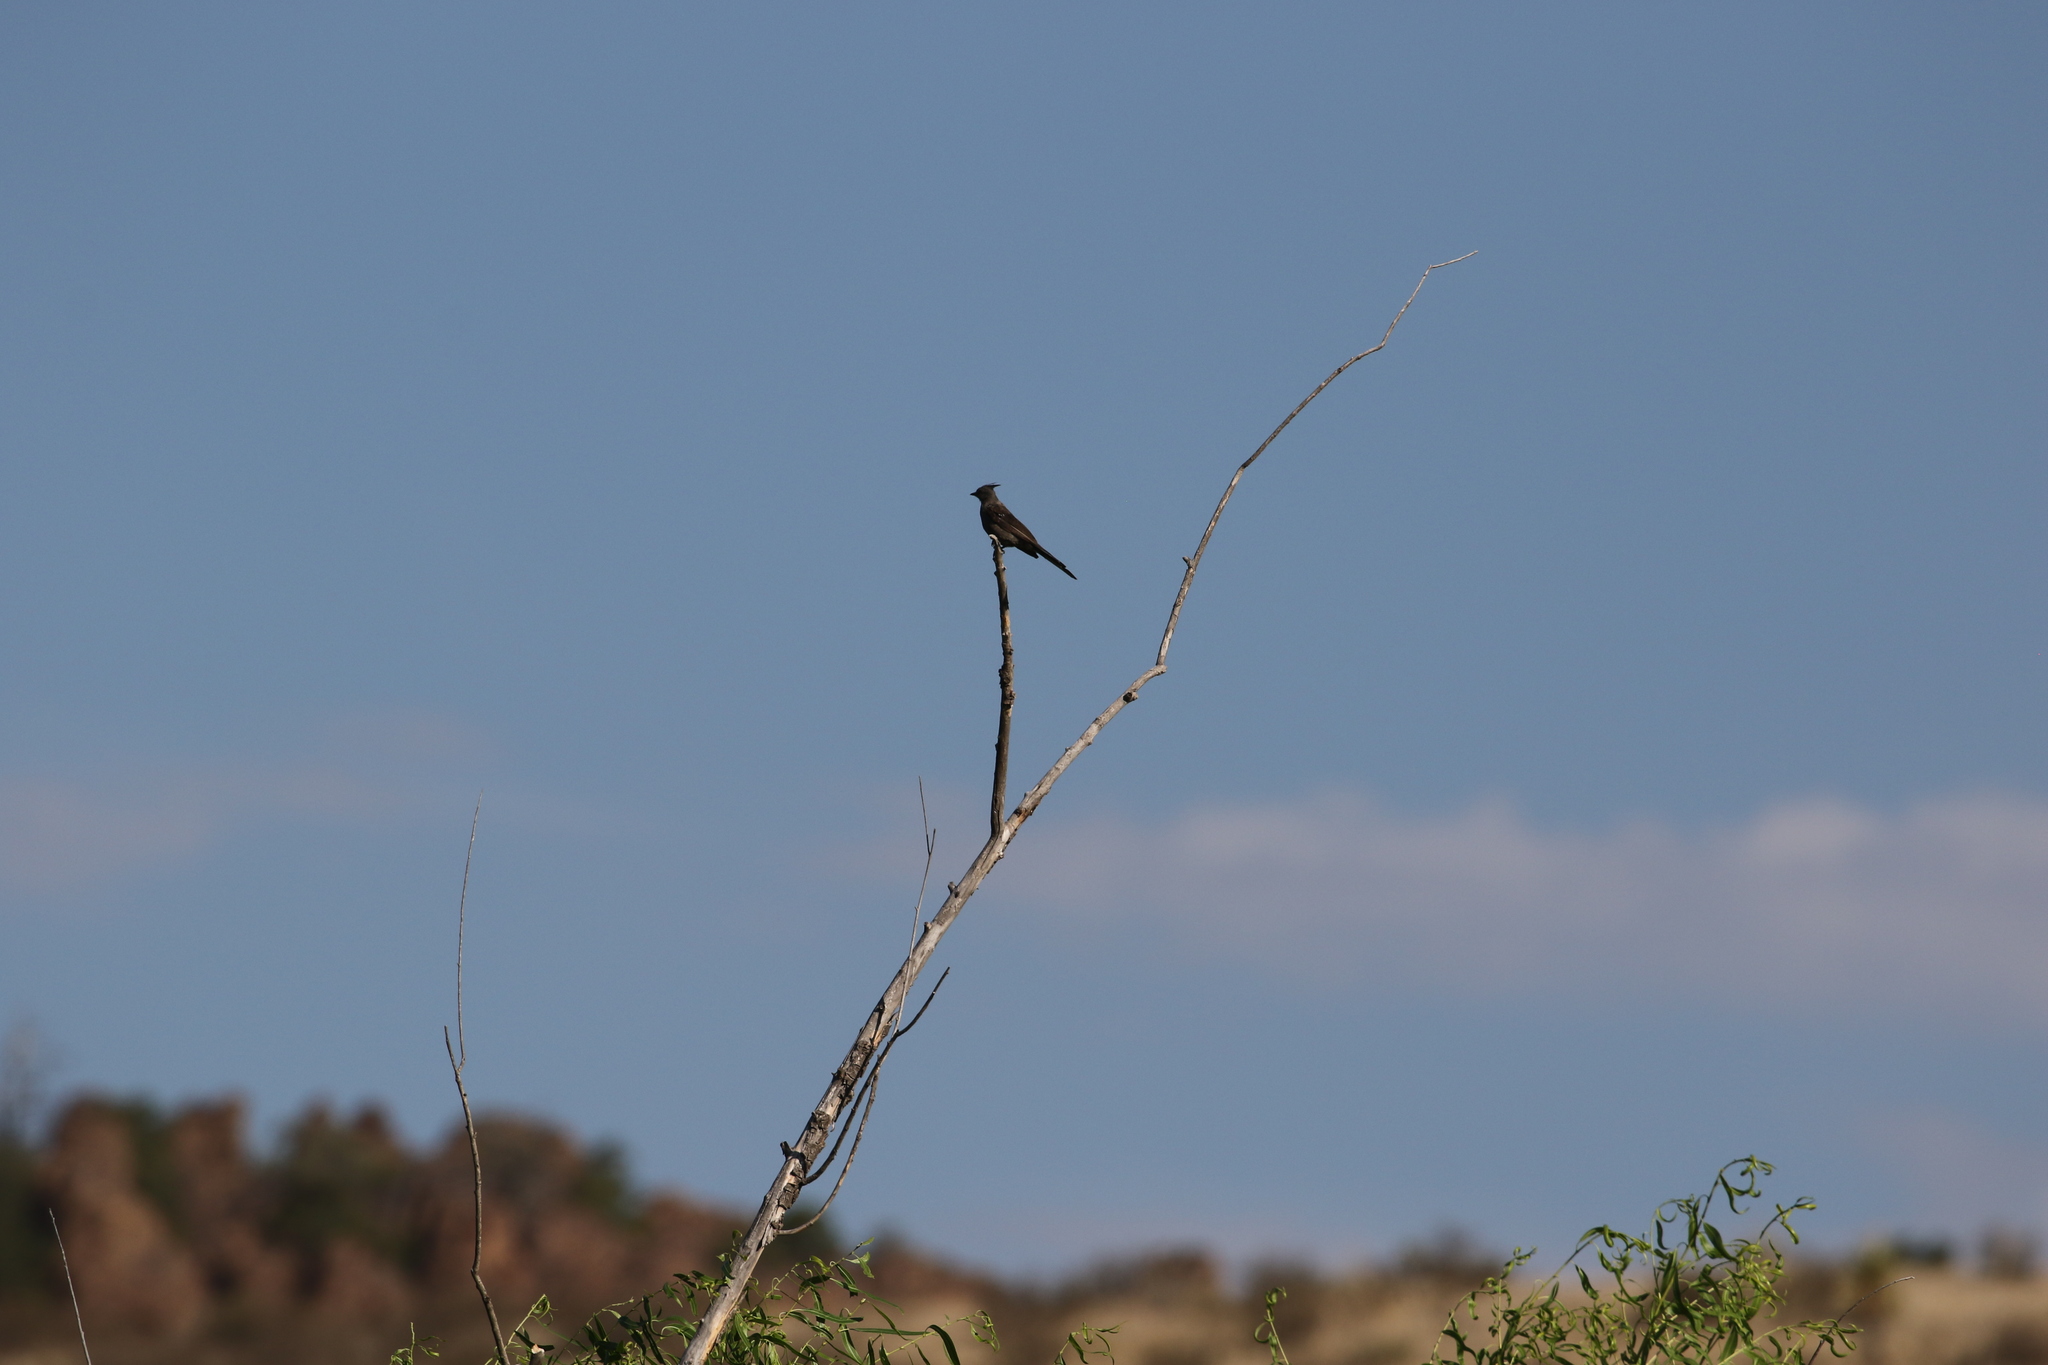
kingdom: Animalia
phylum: Chordata
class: Aves
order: Passeriformes
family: Ptilogonatidae
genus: Phainopepla
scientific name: Phainopepla nitens
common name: Phainopepla
